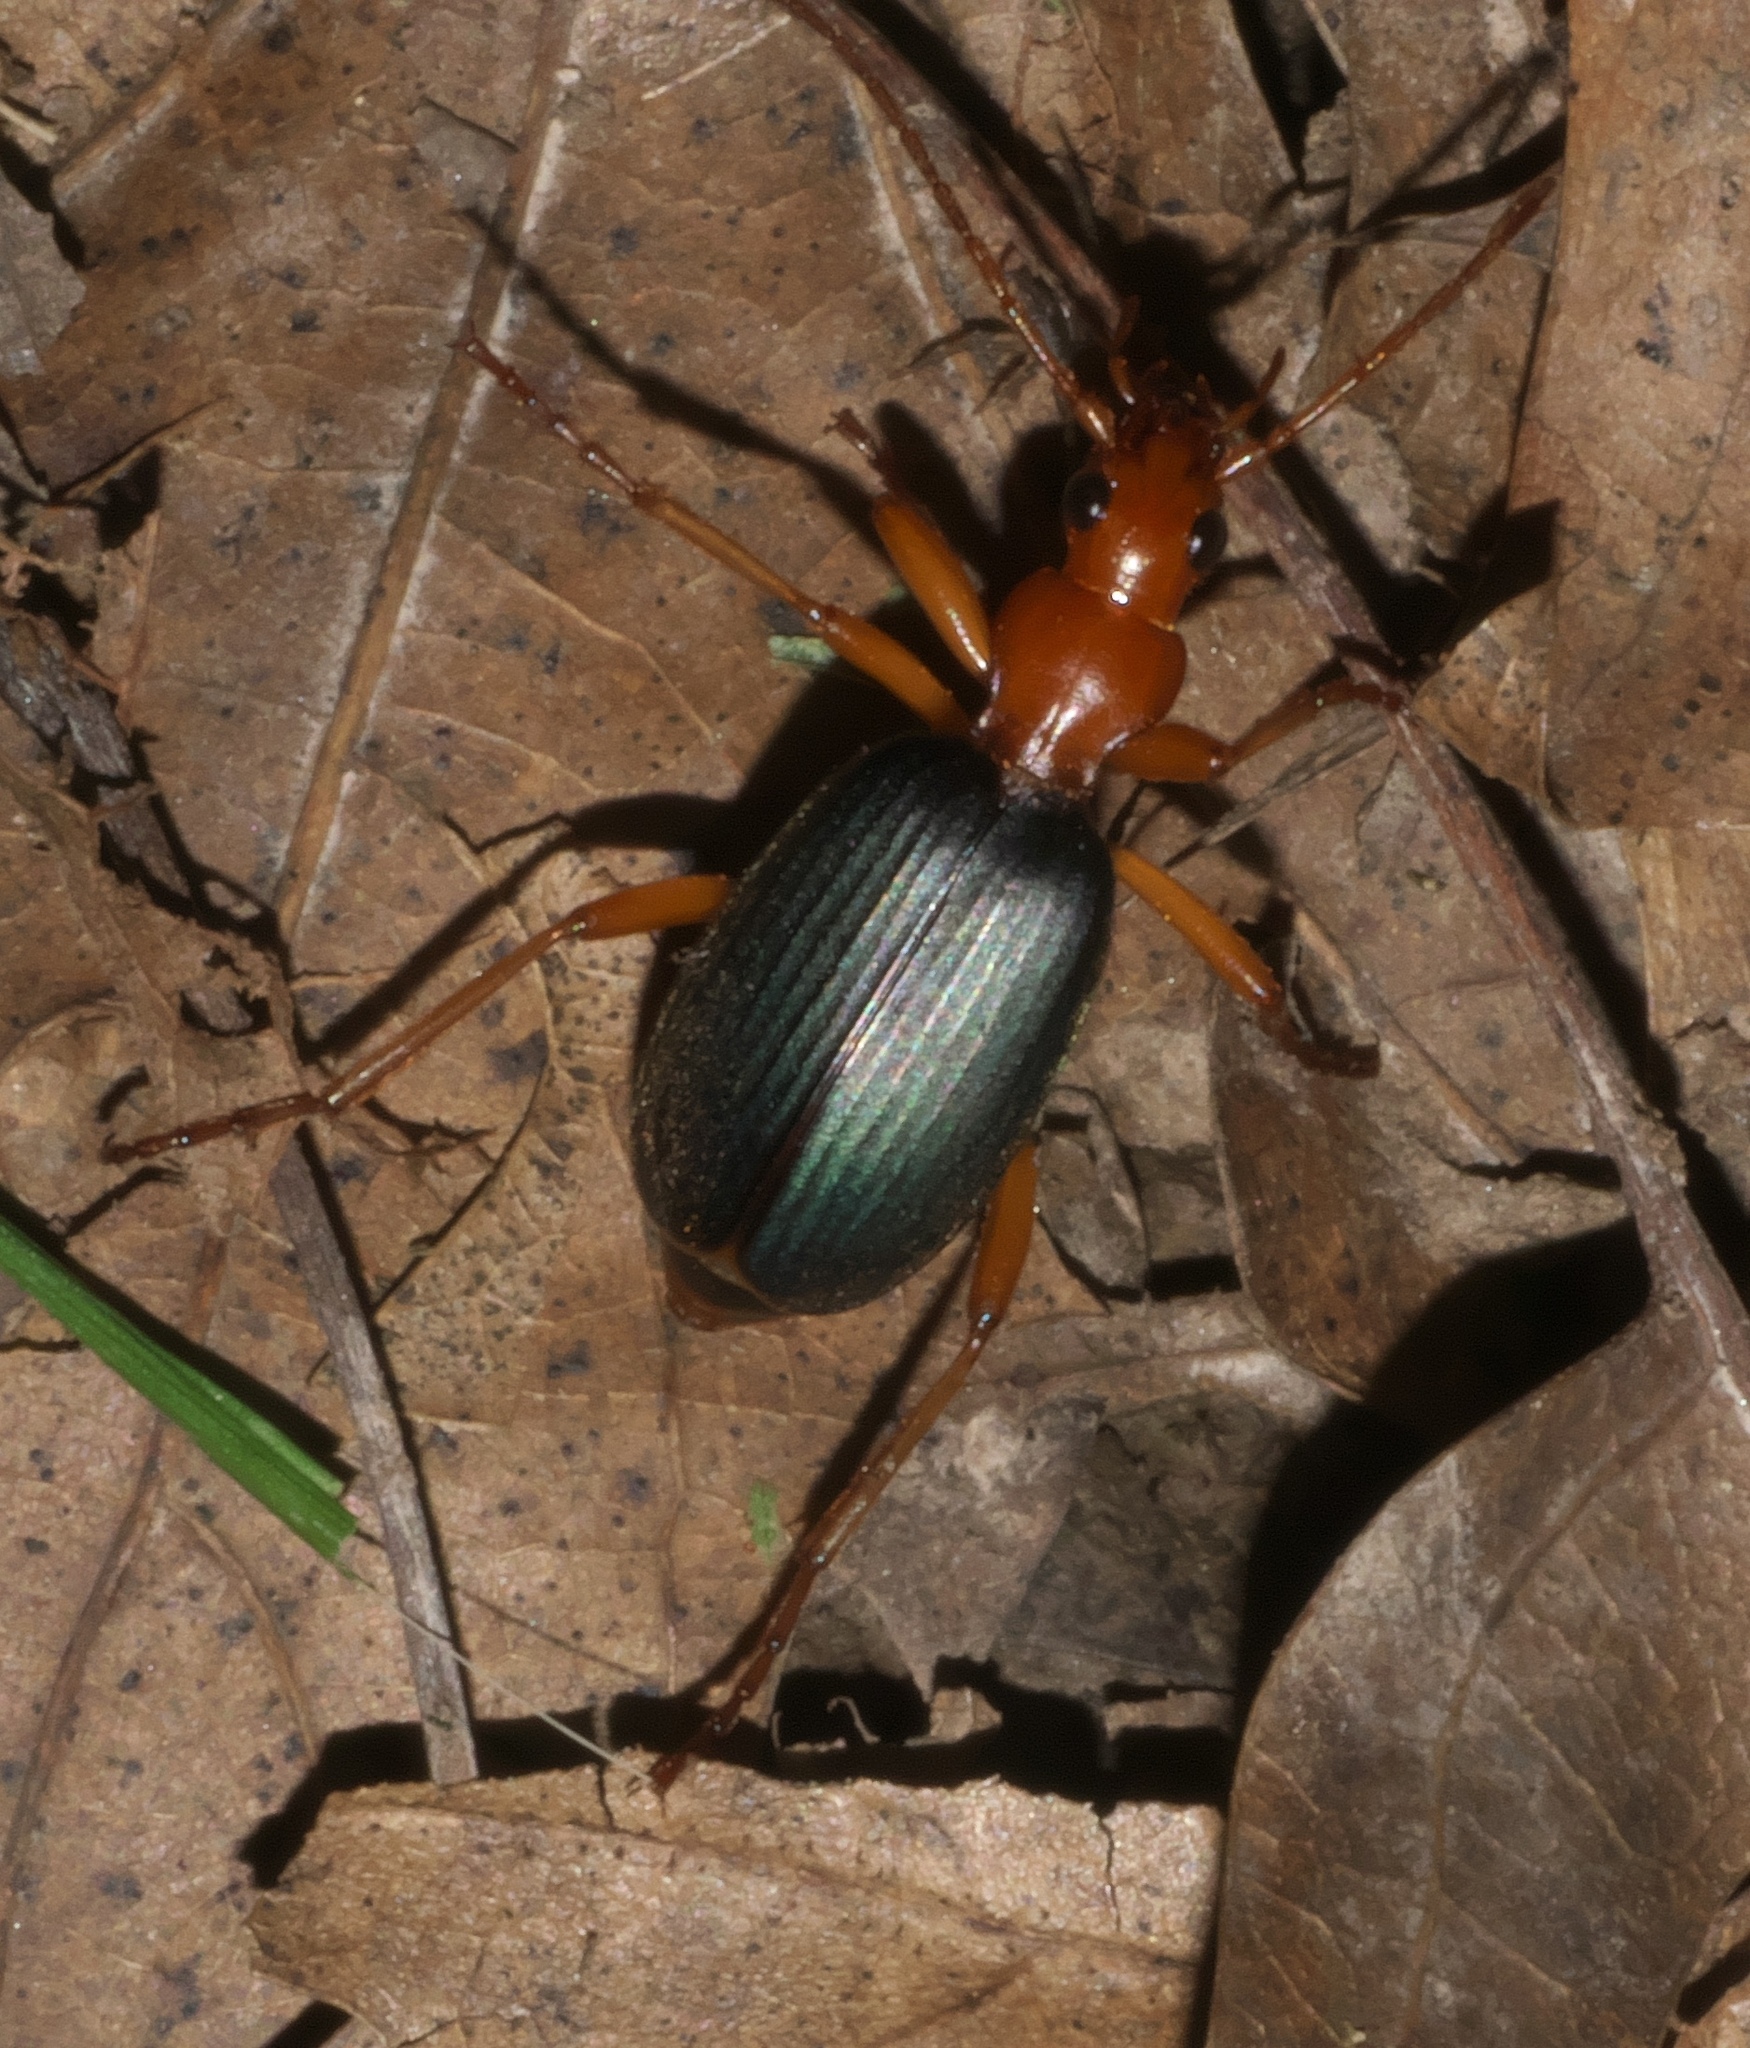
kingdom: Animalia
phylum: Arthropoda
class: Insecta
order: Coleoptera
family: Carabidae
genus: Brachinus
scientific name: Brachinus
